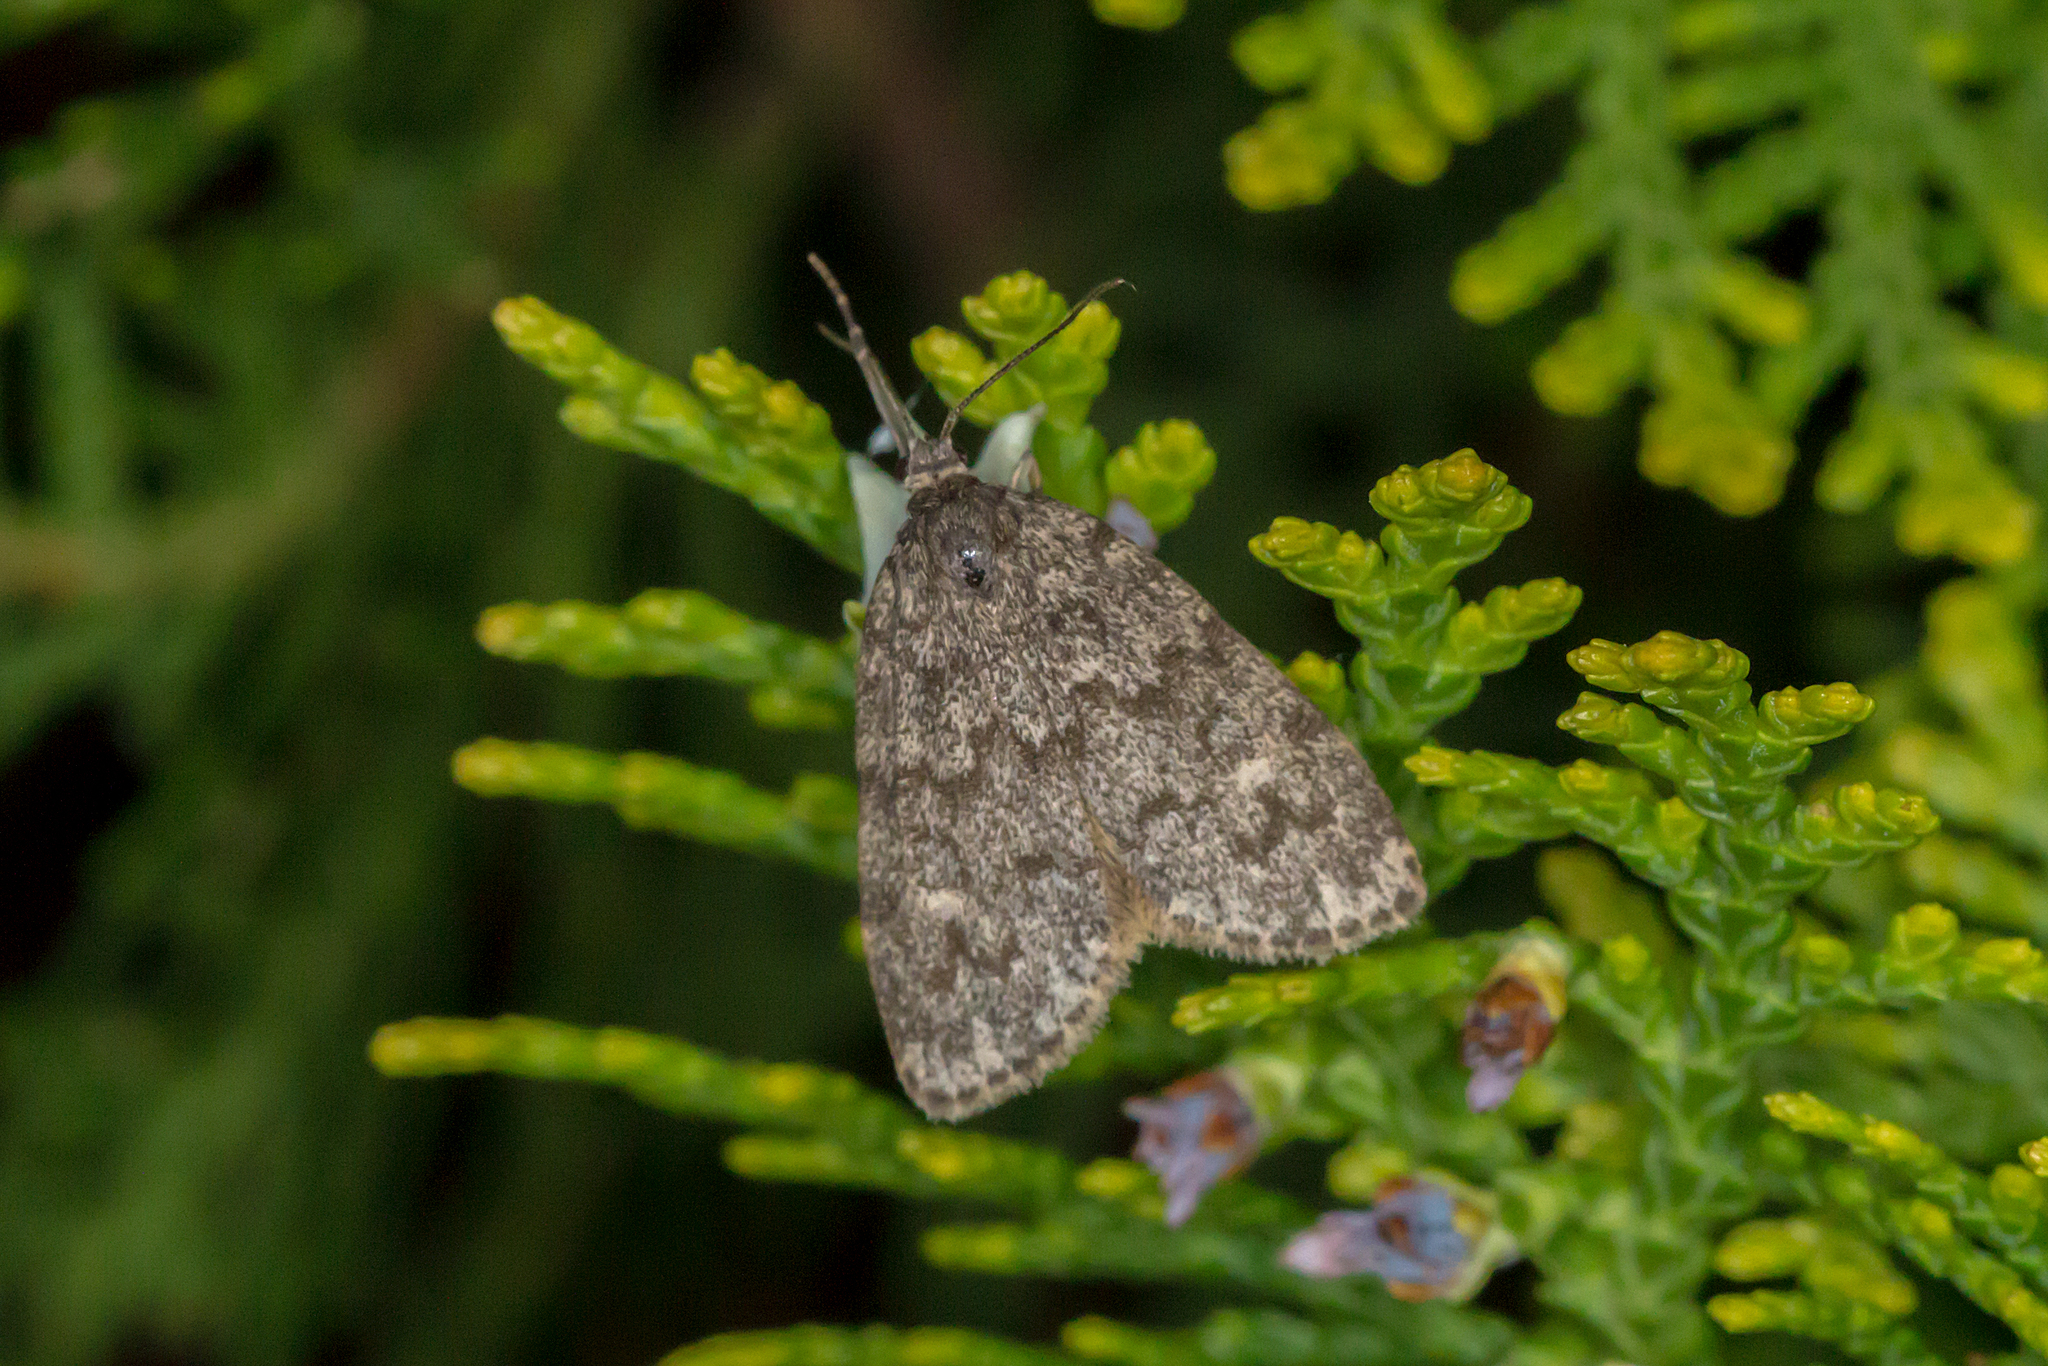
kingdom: Animalia
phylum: Arthropoda
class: Insecta
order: Lepidoptera
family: Erebidae
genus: Halone
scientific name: Halone consolatrix
